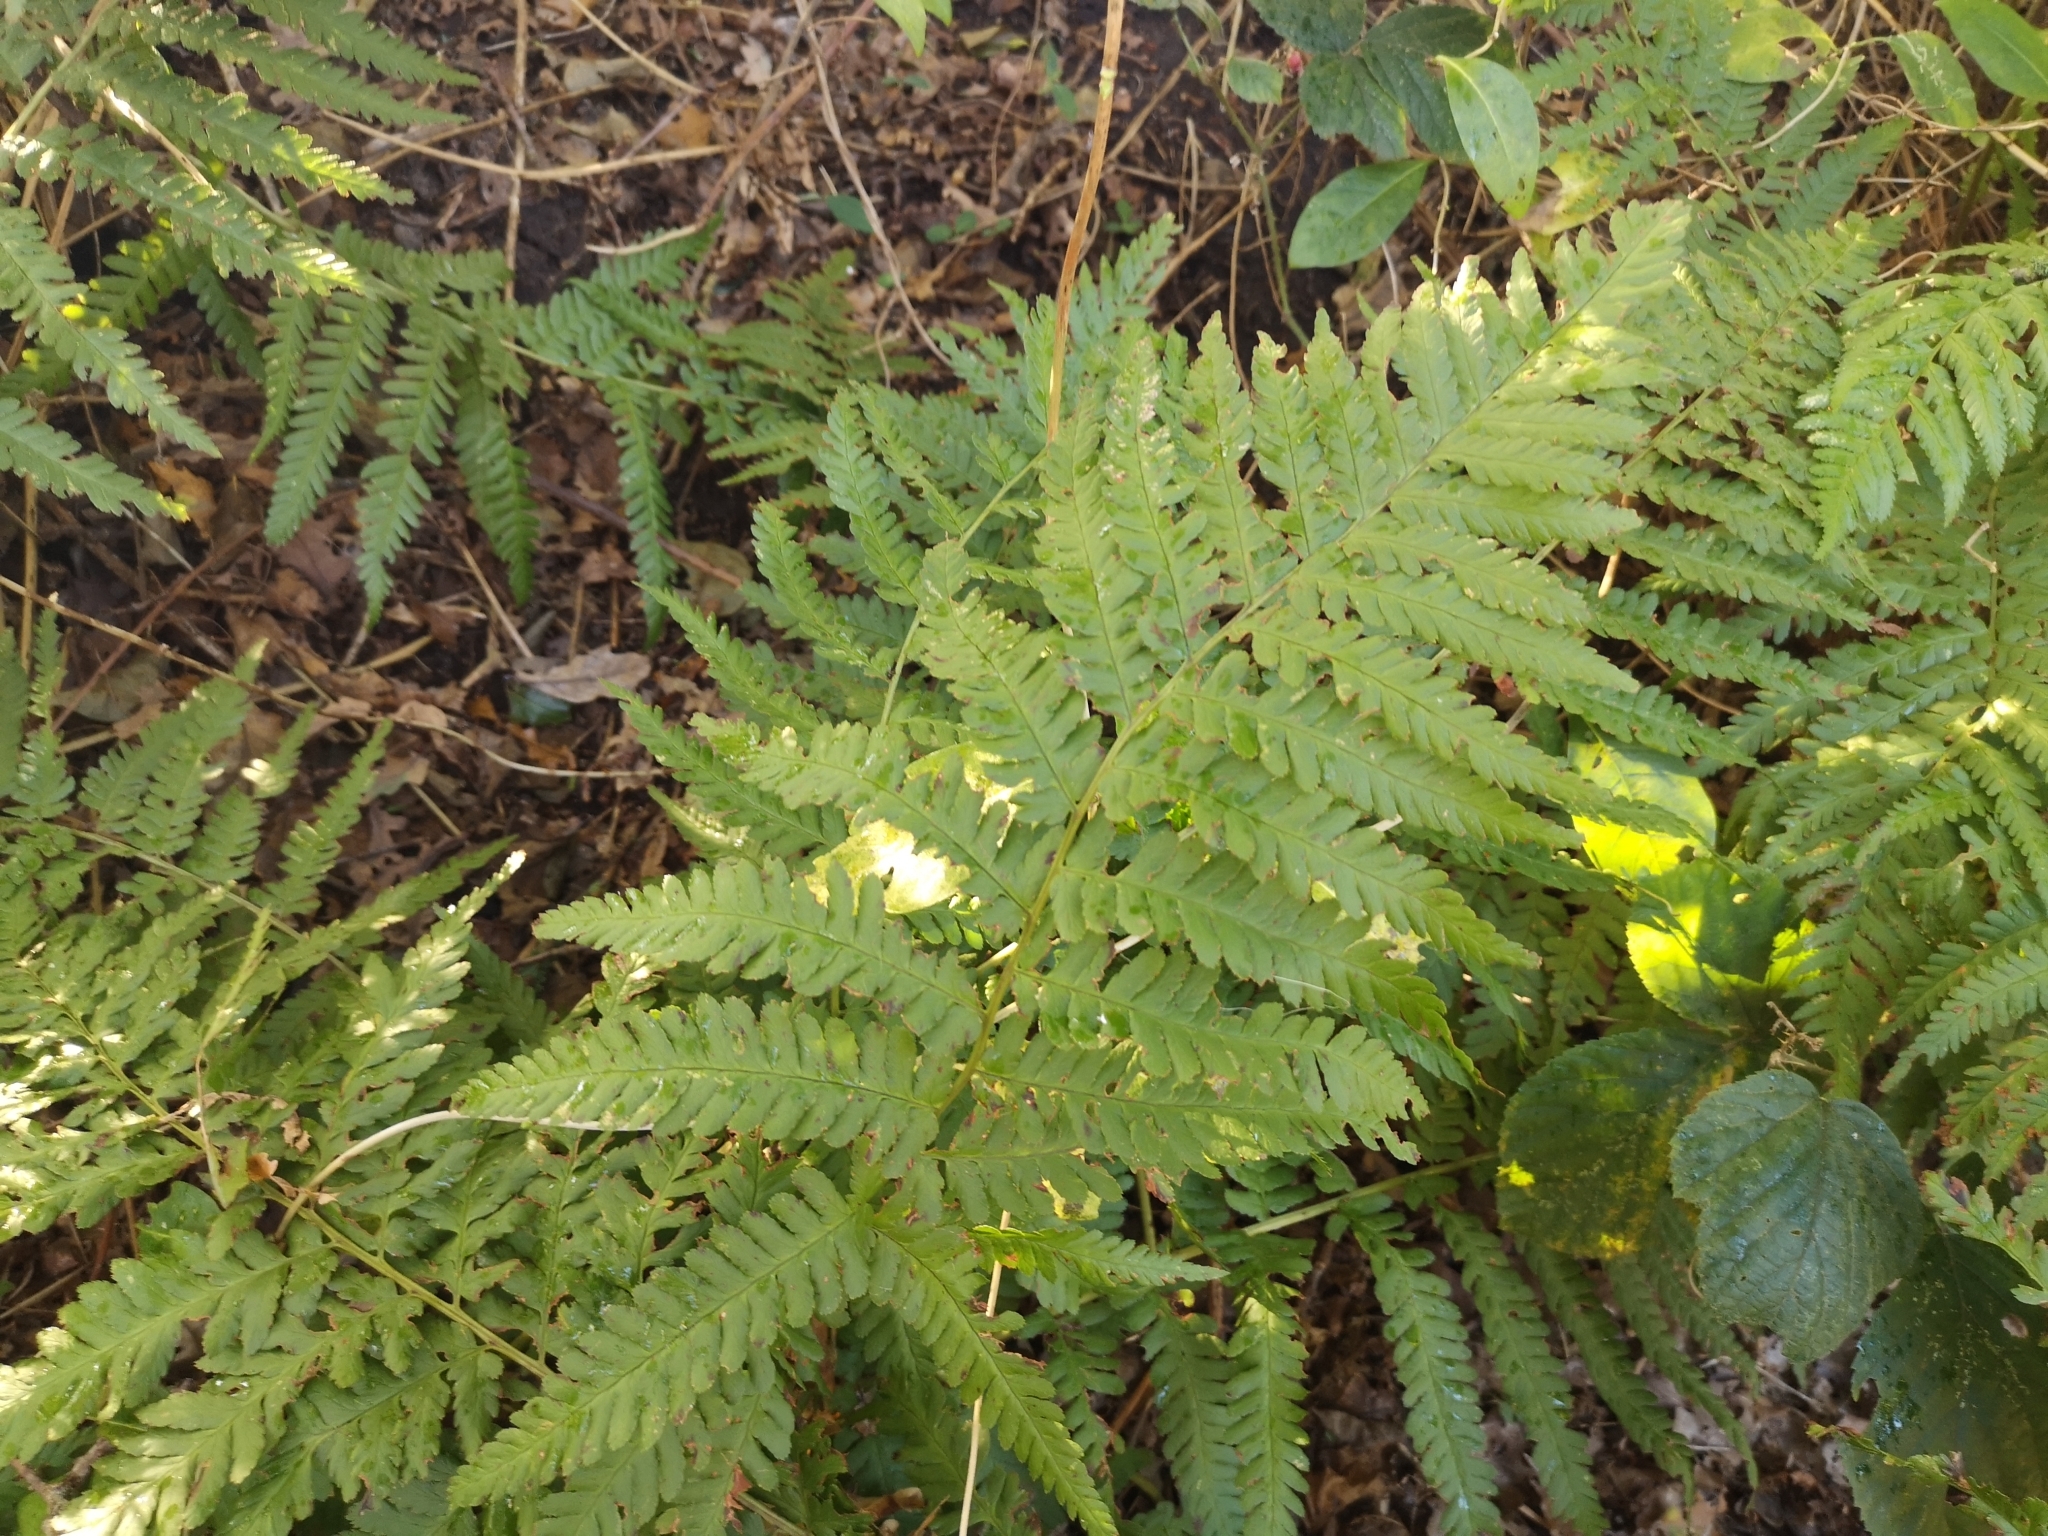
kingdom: Plantae
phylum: Tracheophyta
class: Polypodiopsida
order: Polypodiales
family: Dryopteridaceae
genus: Dryopteris
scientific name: Dryopteris filix-mas
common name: Male fern
